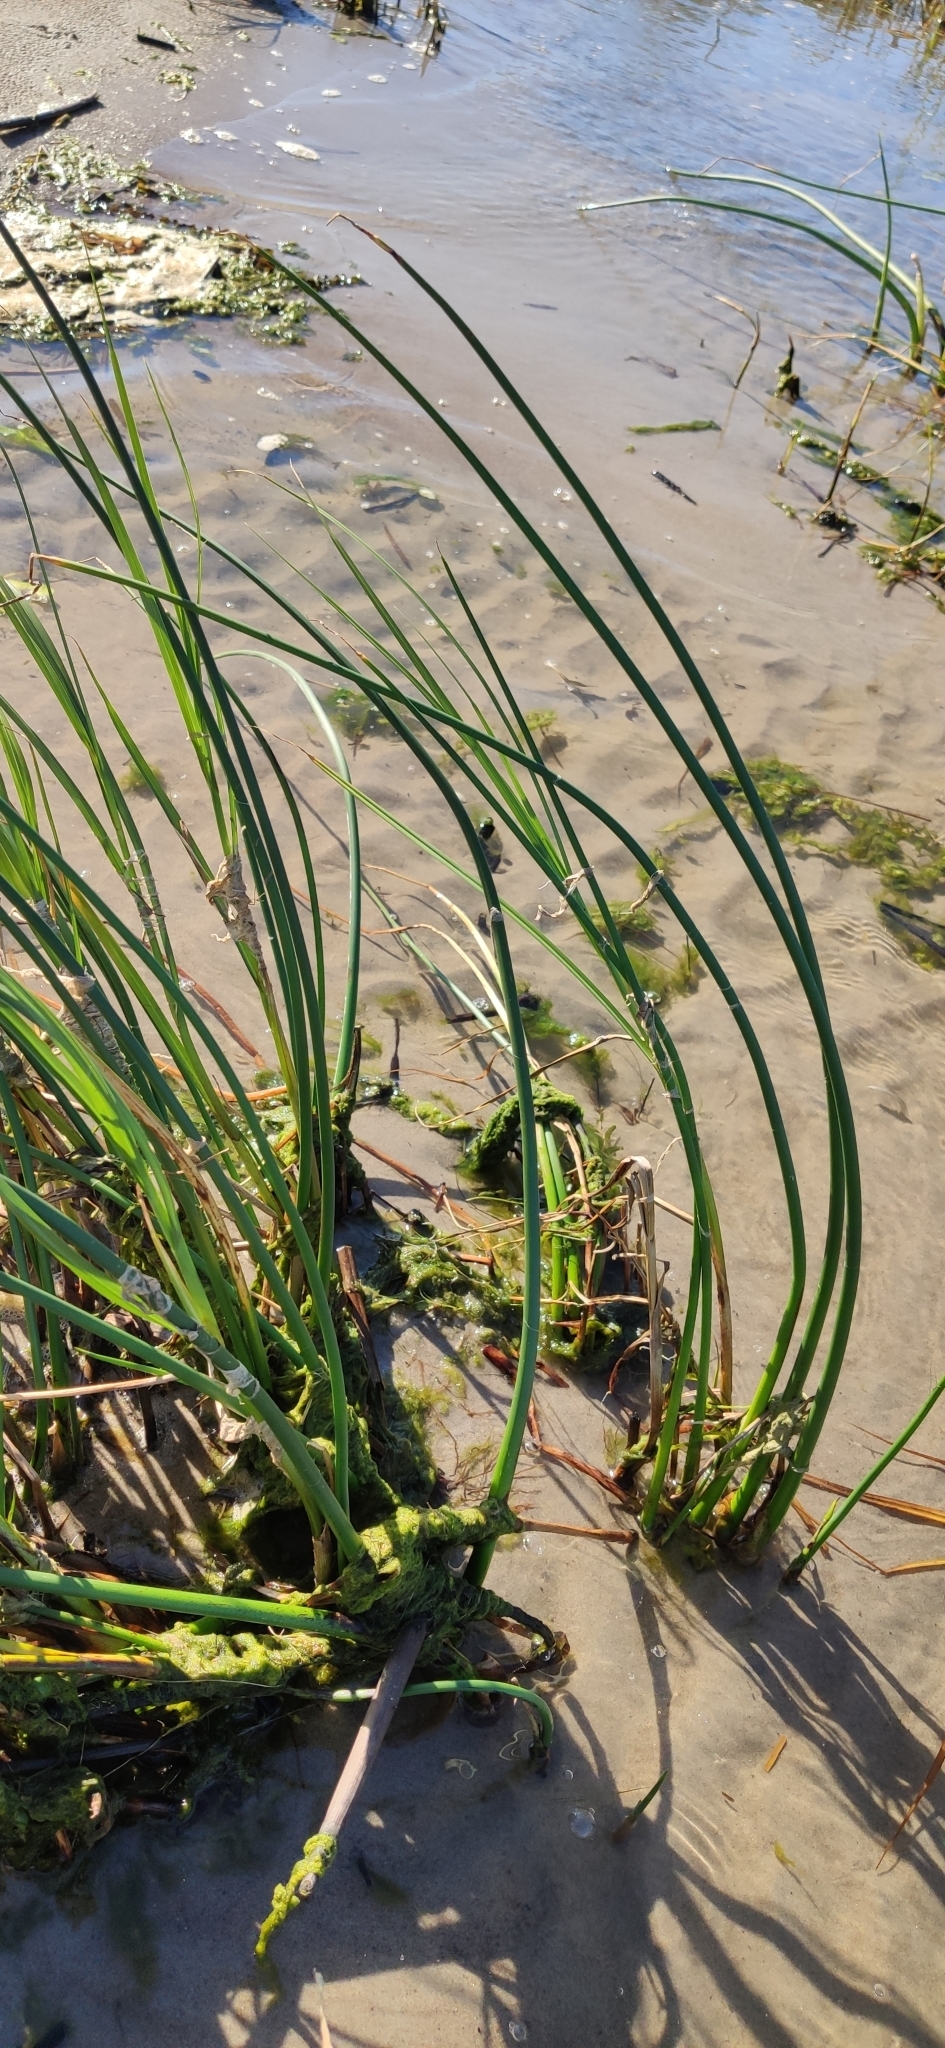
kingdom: Plantae
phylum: Tracheophyta
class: Liliopsida
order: Poales
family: Cyperaceae
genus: Schoenoplectus
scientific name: Schoenoplectus lacustris
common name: Common club-rush
